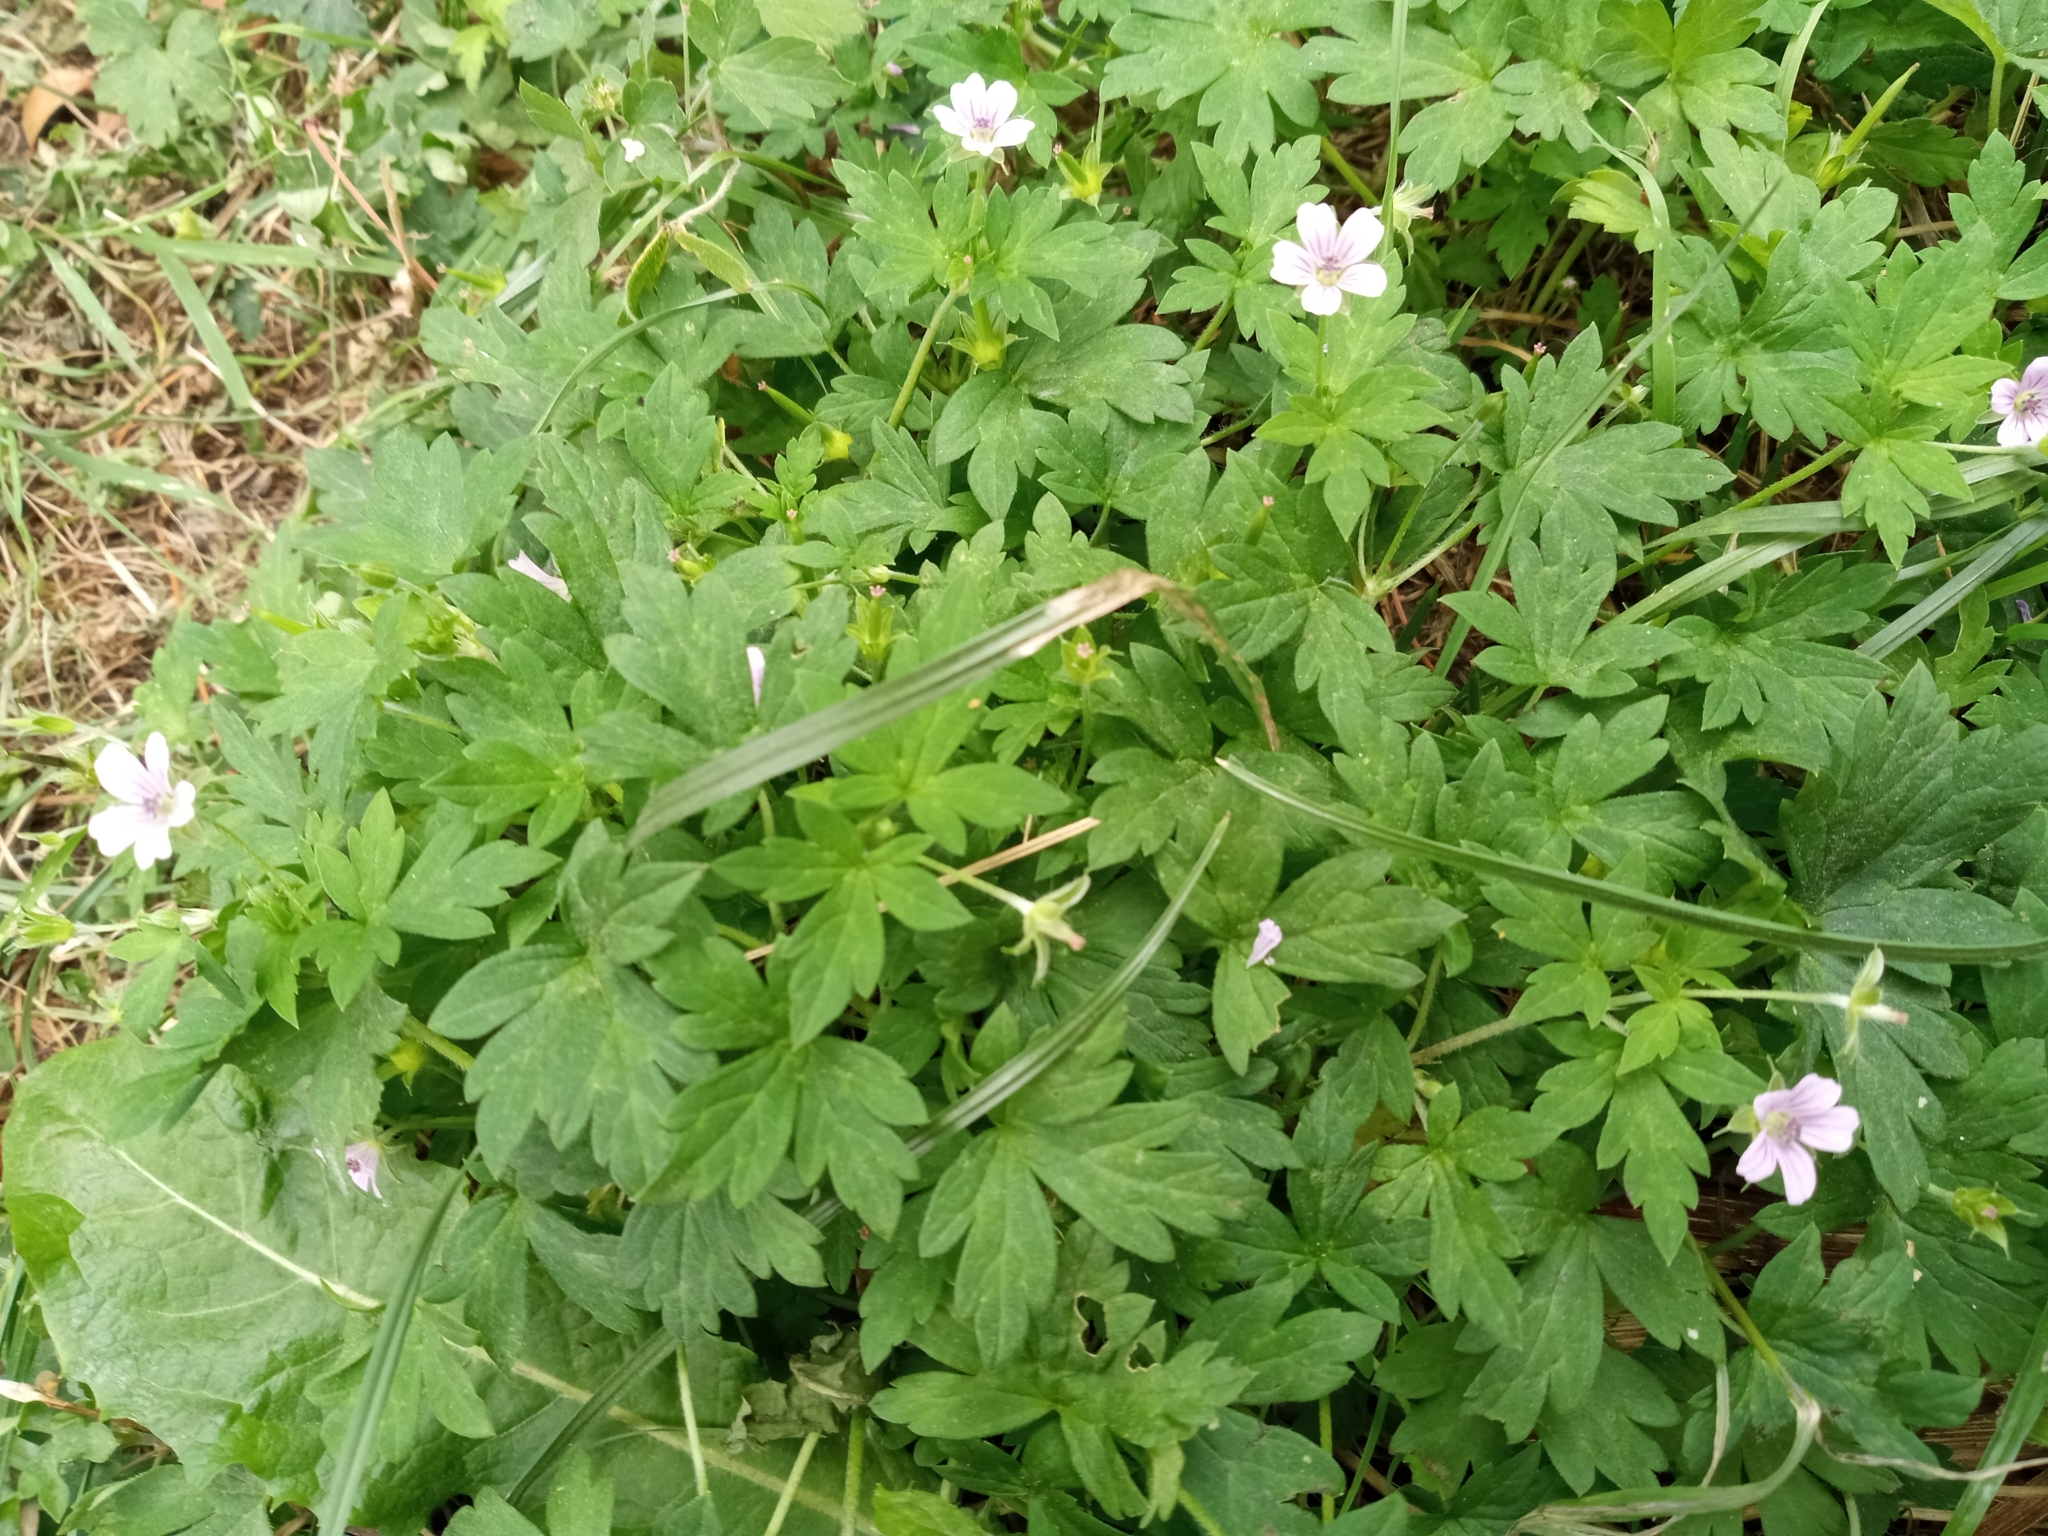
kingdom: Plantae
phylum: Tracheophyta
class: Magnoliopsida
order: Geraniales
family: Geraniaceae
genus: Geranium
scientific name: Geranium sibiricum
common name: Siberian crane's-bill
